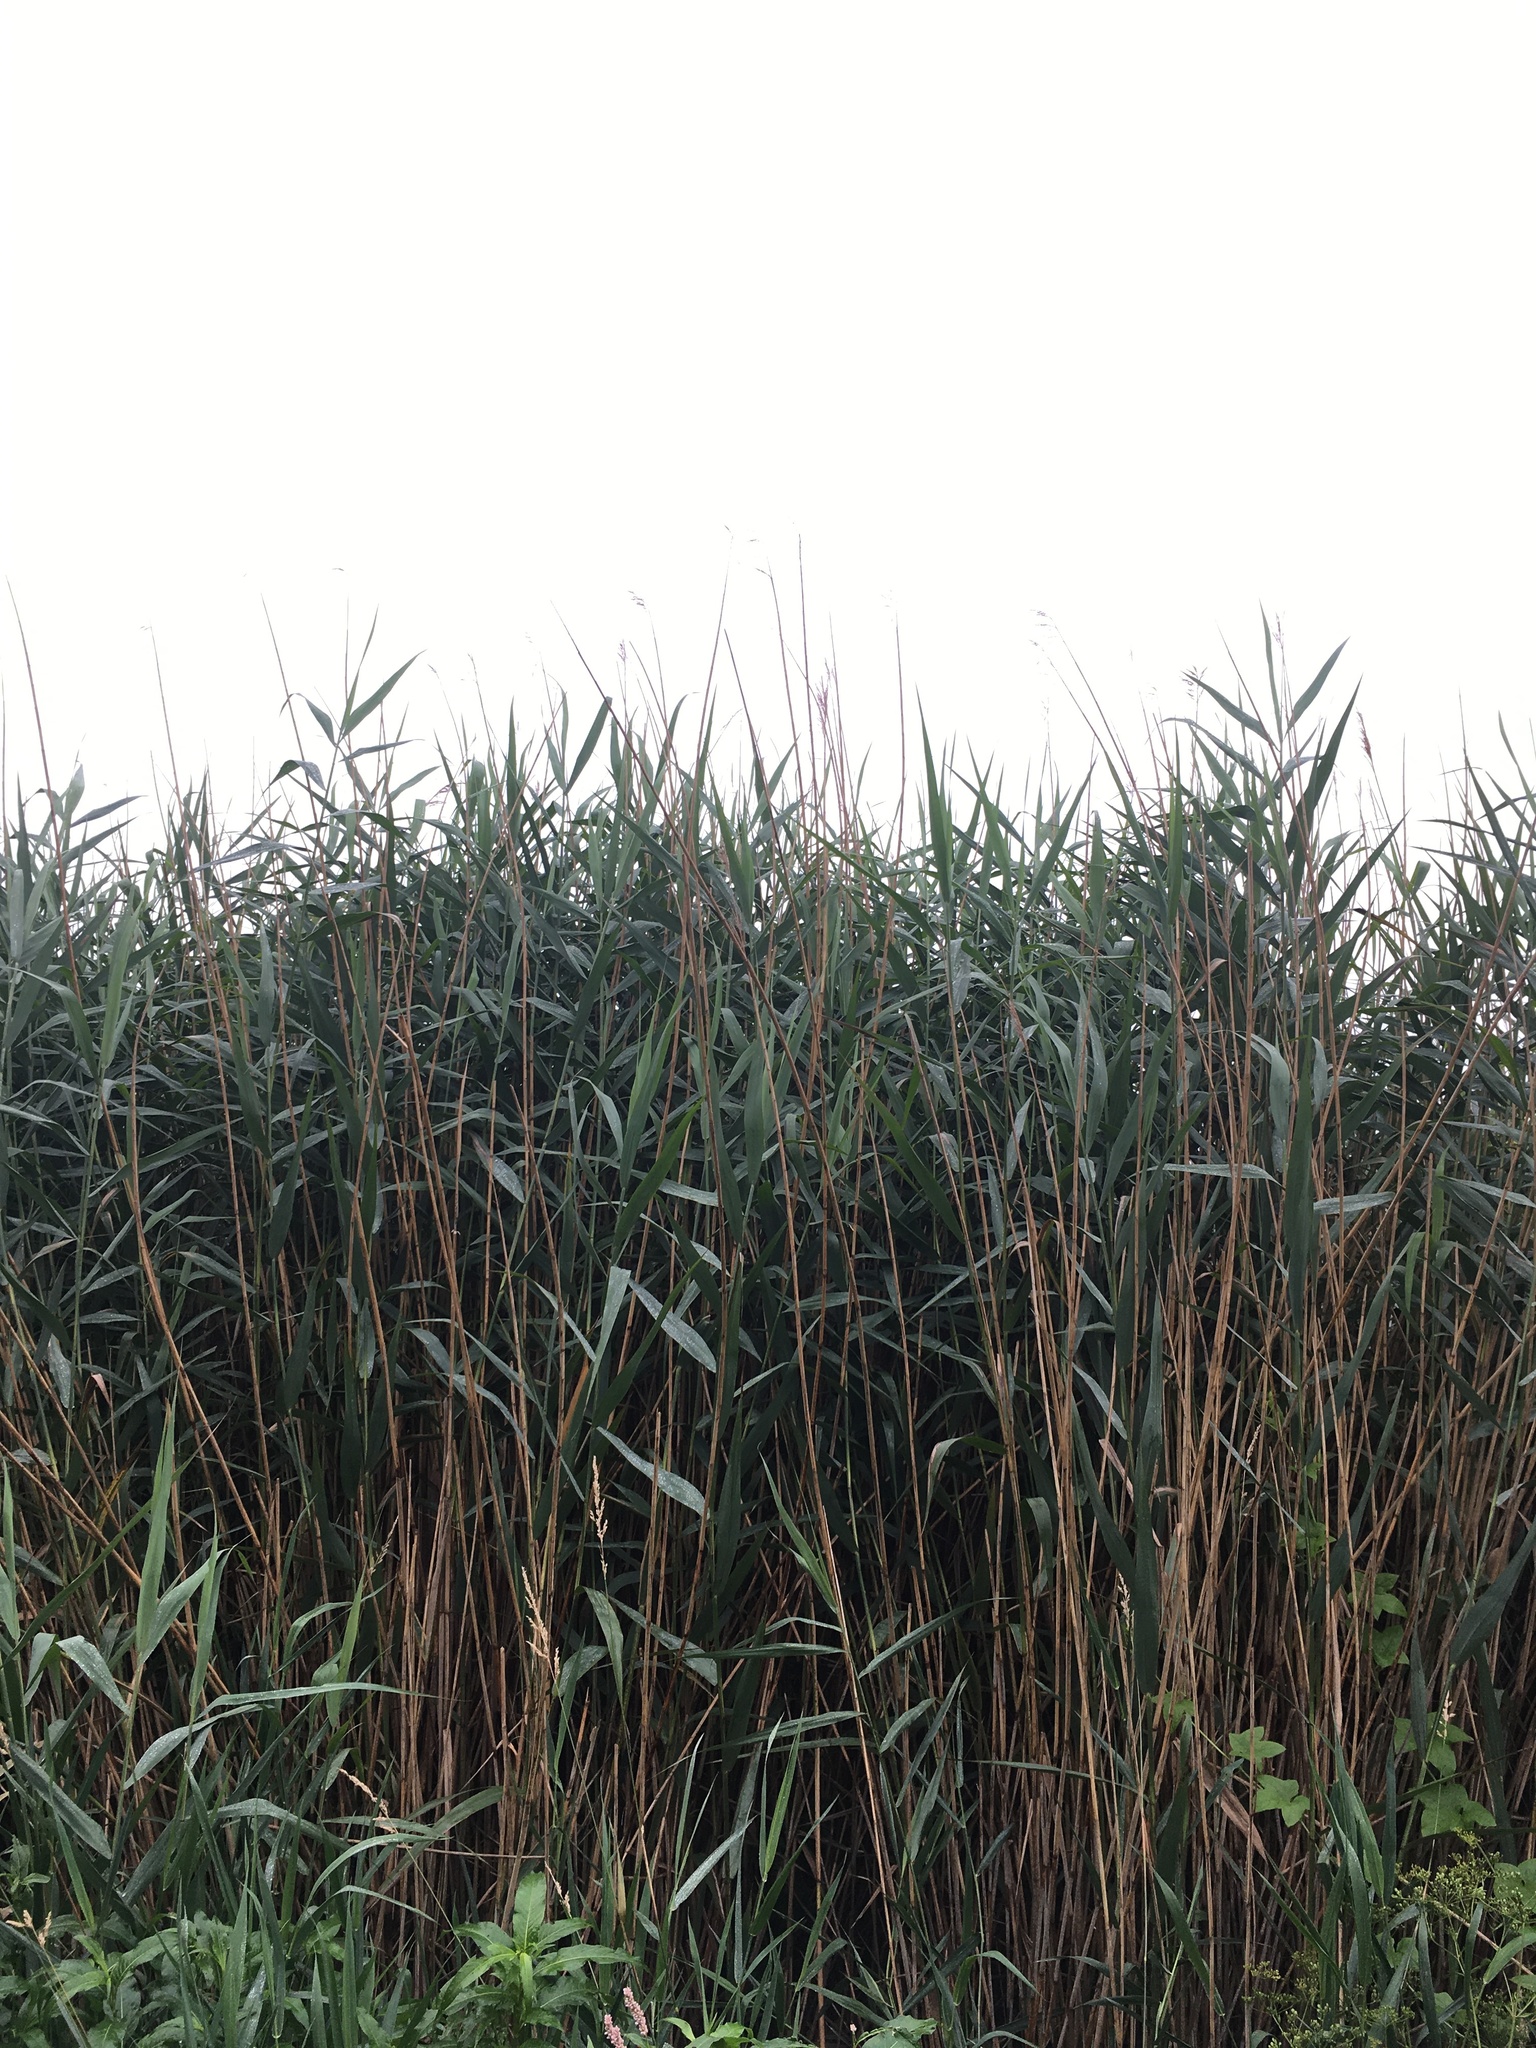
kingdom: Plantae
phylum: Tracheophyta
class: Liliopsida
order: Poales
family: Poaceae
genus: Phragmites
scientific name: Phragmites australis
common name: Common reed
